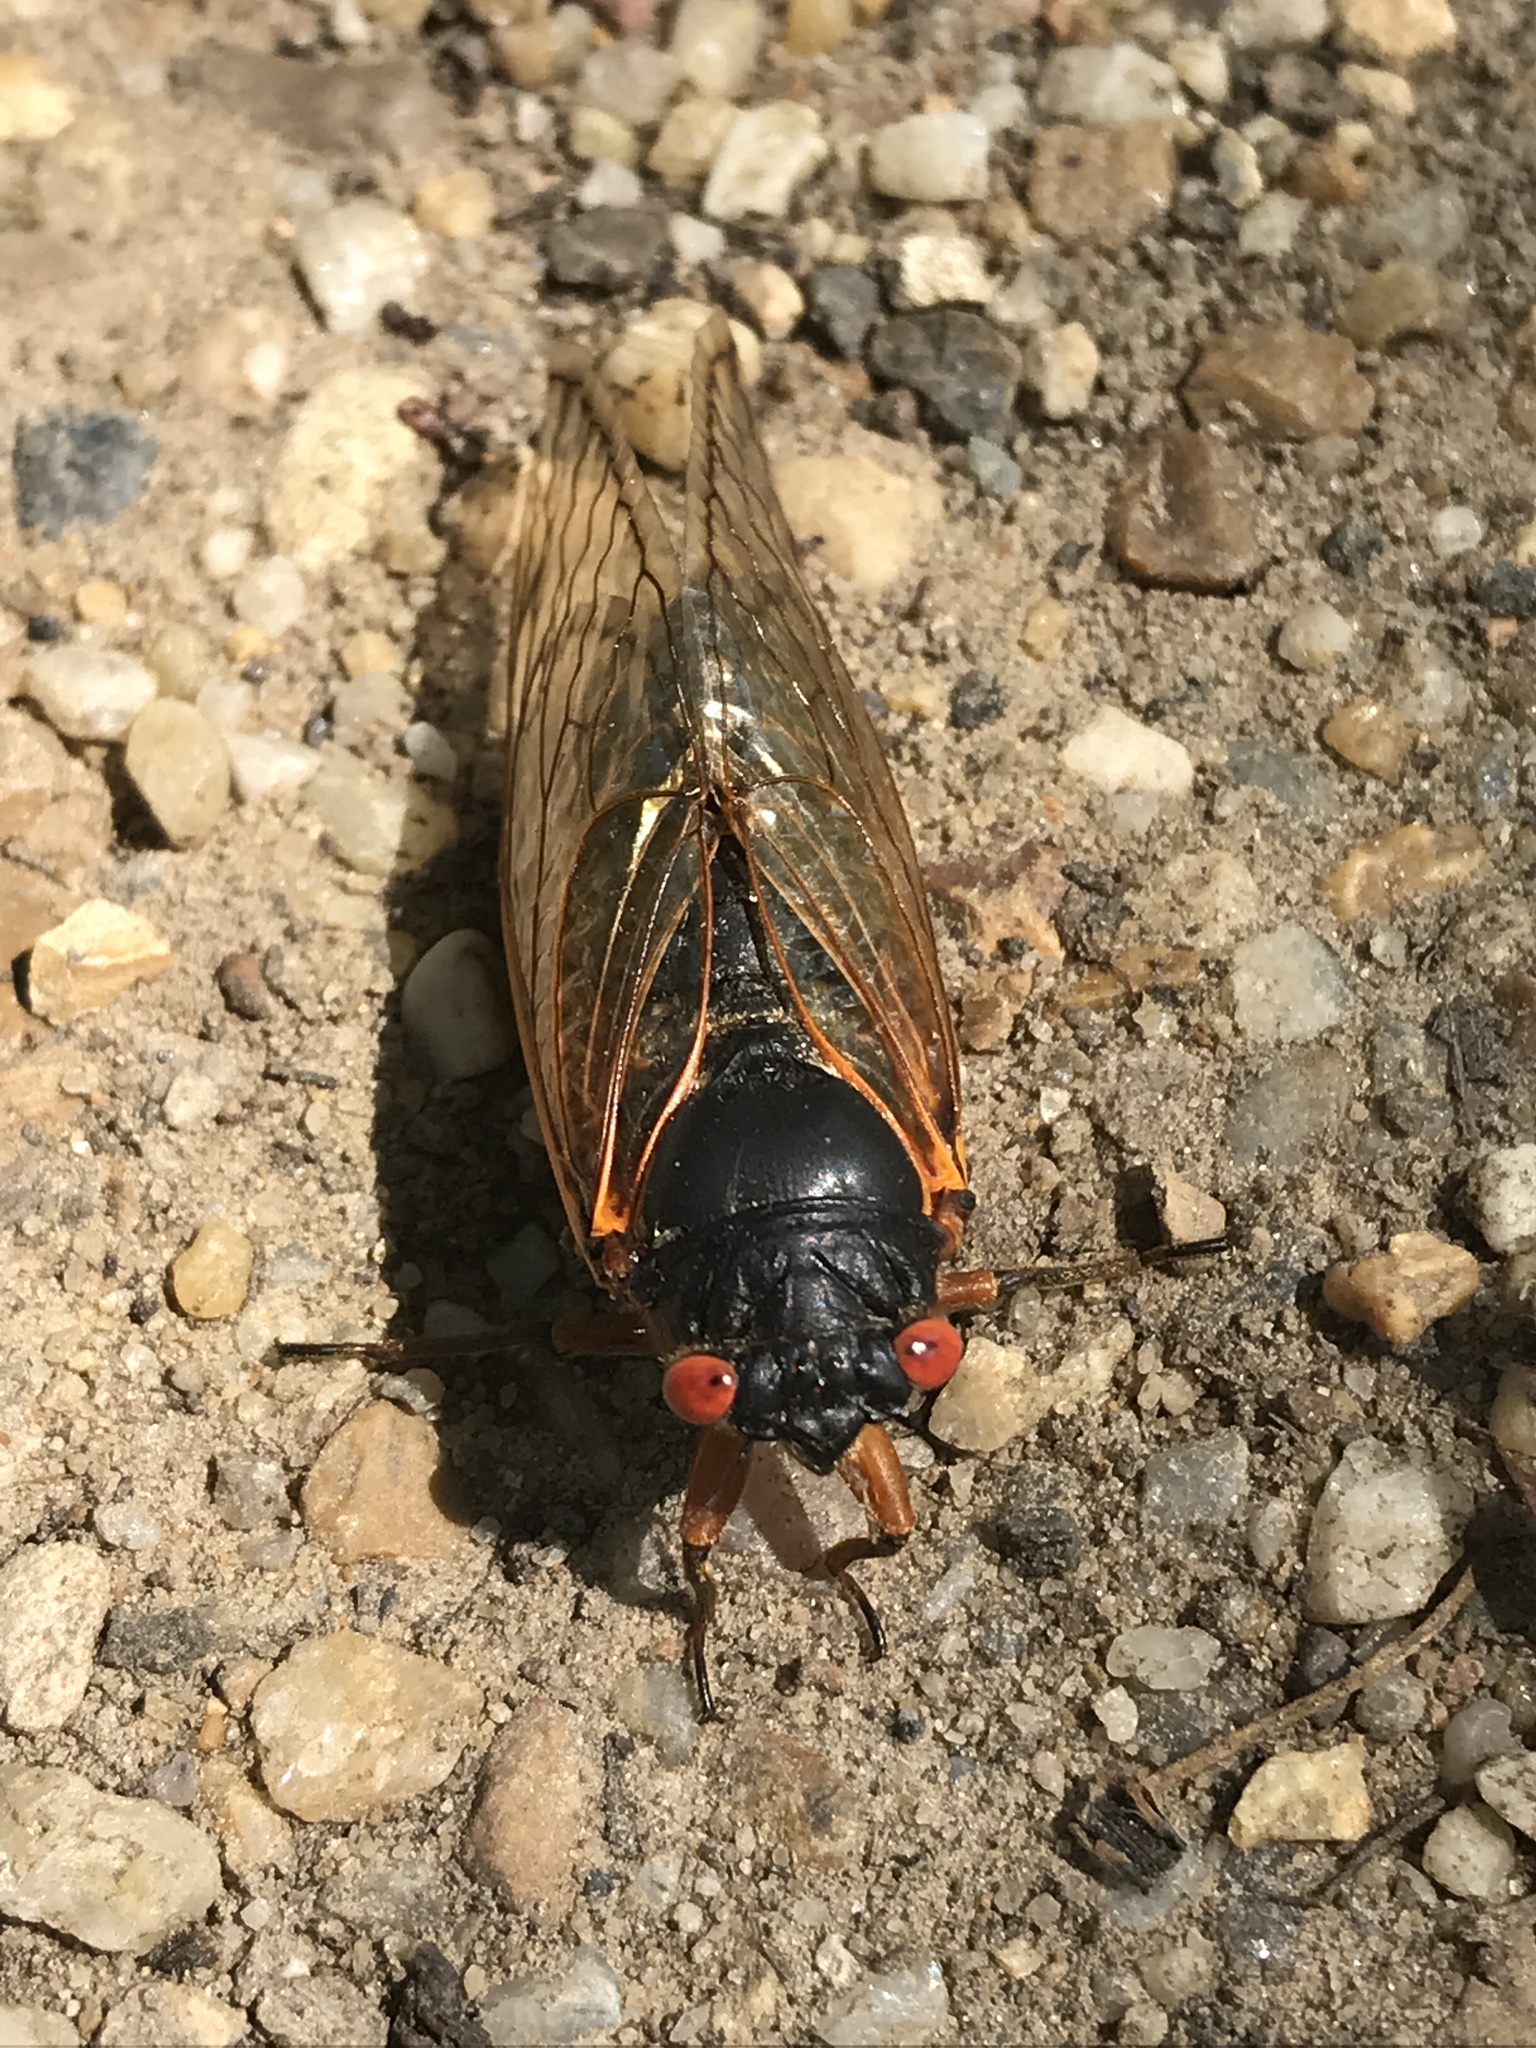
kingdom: Animalia
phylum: Arthropoda
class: Insecta
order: Hemiptera
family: Cicadidae
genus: Magicicada
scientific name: Magicicada
